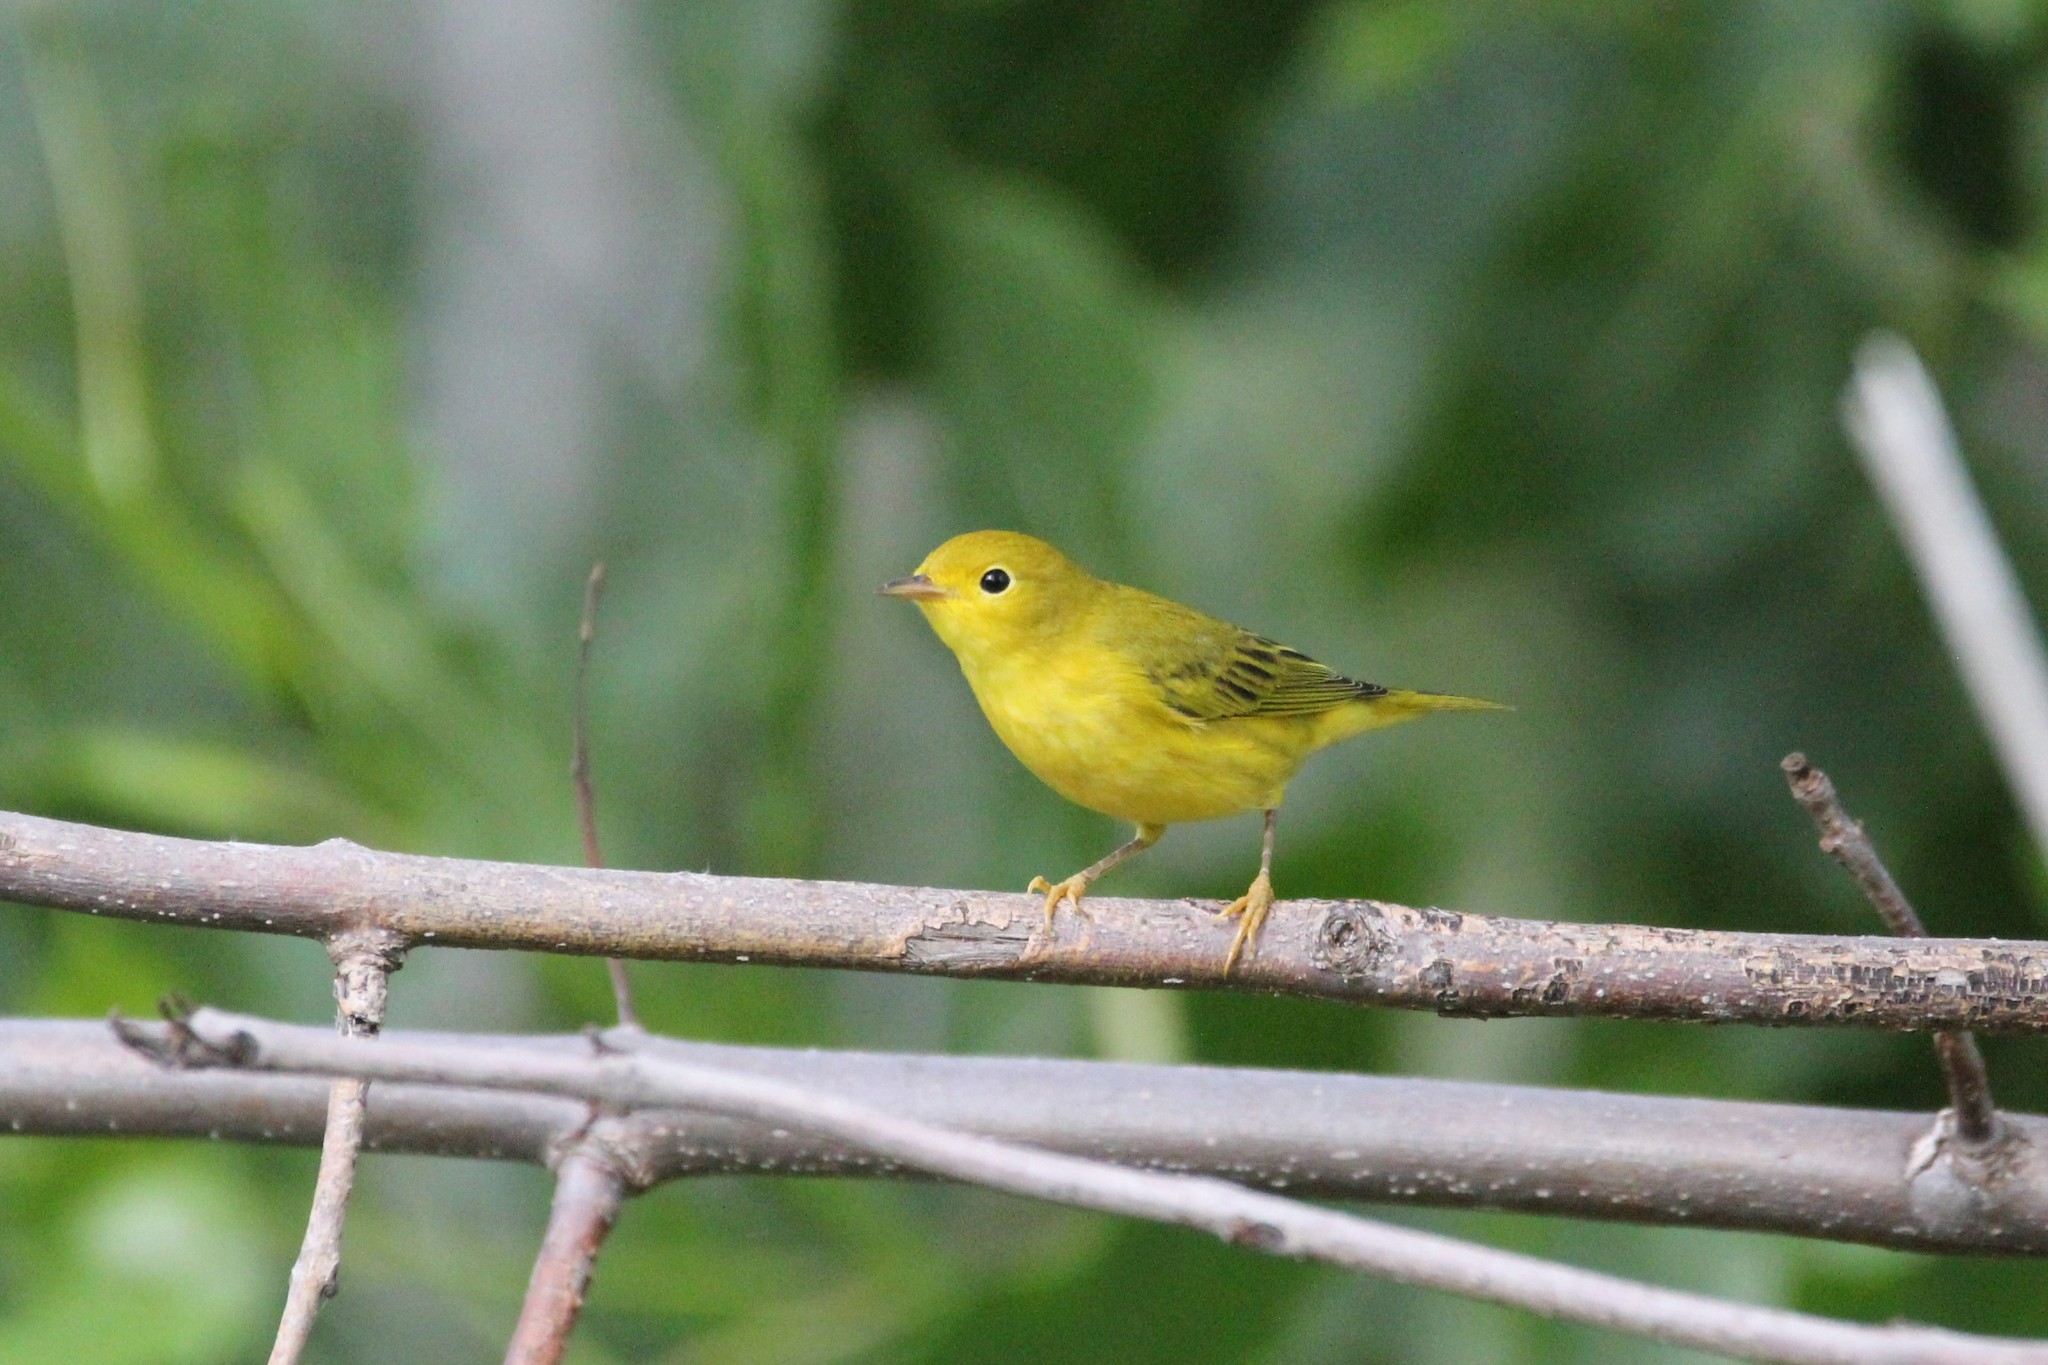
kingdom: Animalia
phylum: Chordata
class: Aves
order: Passeriformes
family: Parulidae
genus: Setophaga
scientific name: Setophaga petechia
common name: Yellow warbler
